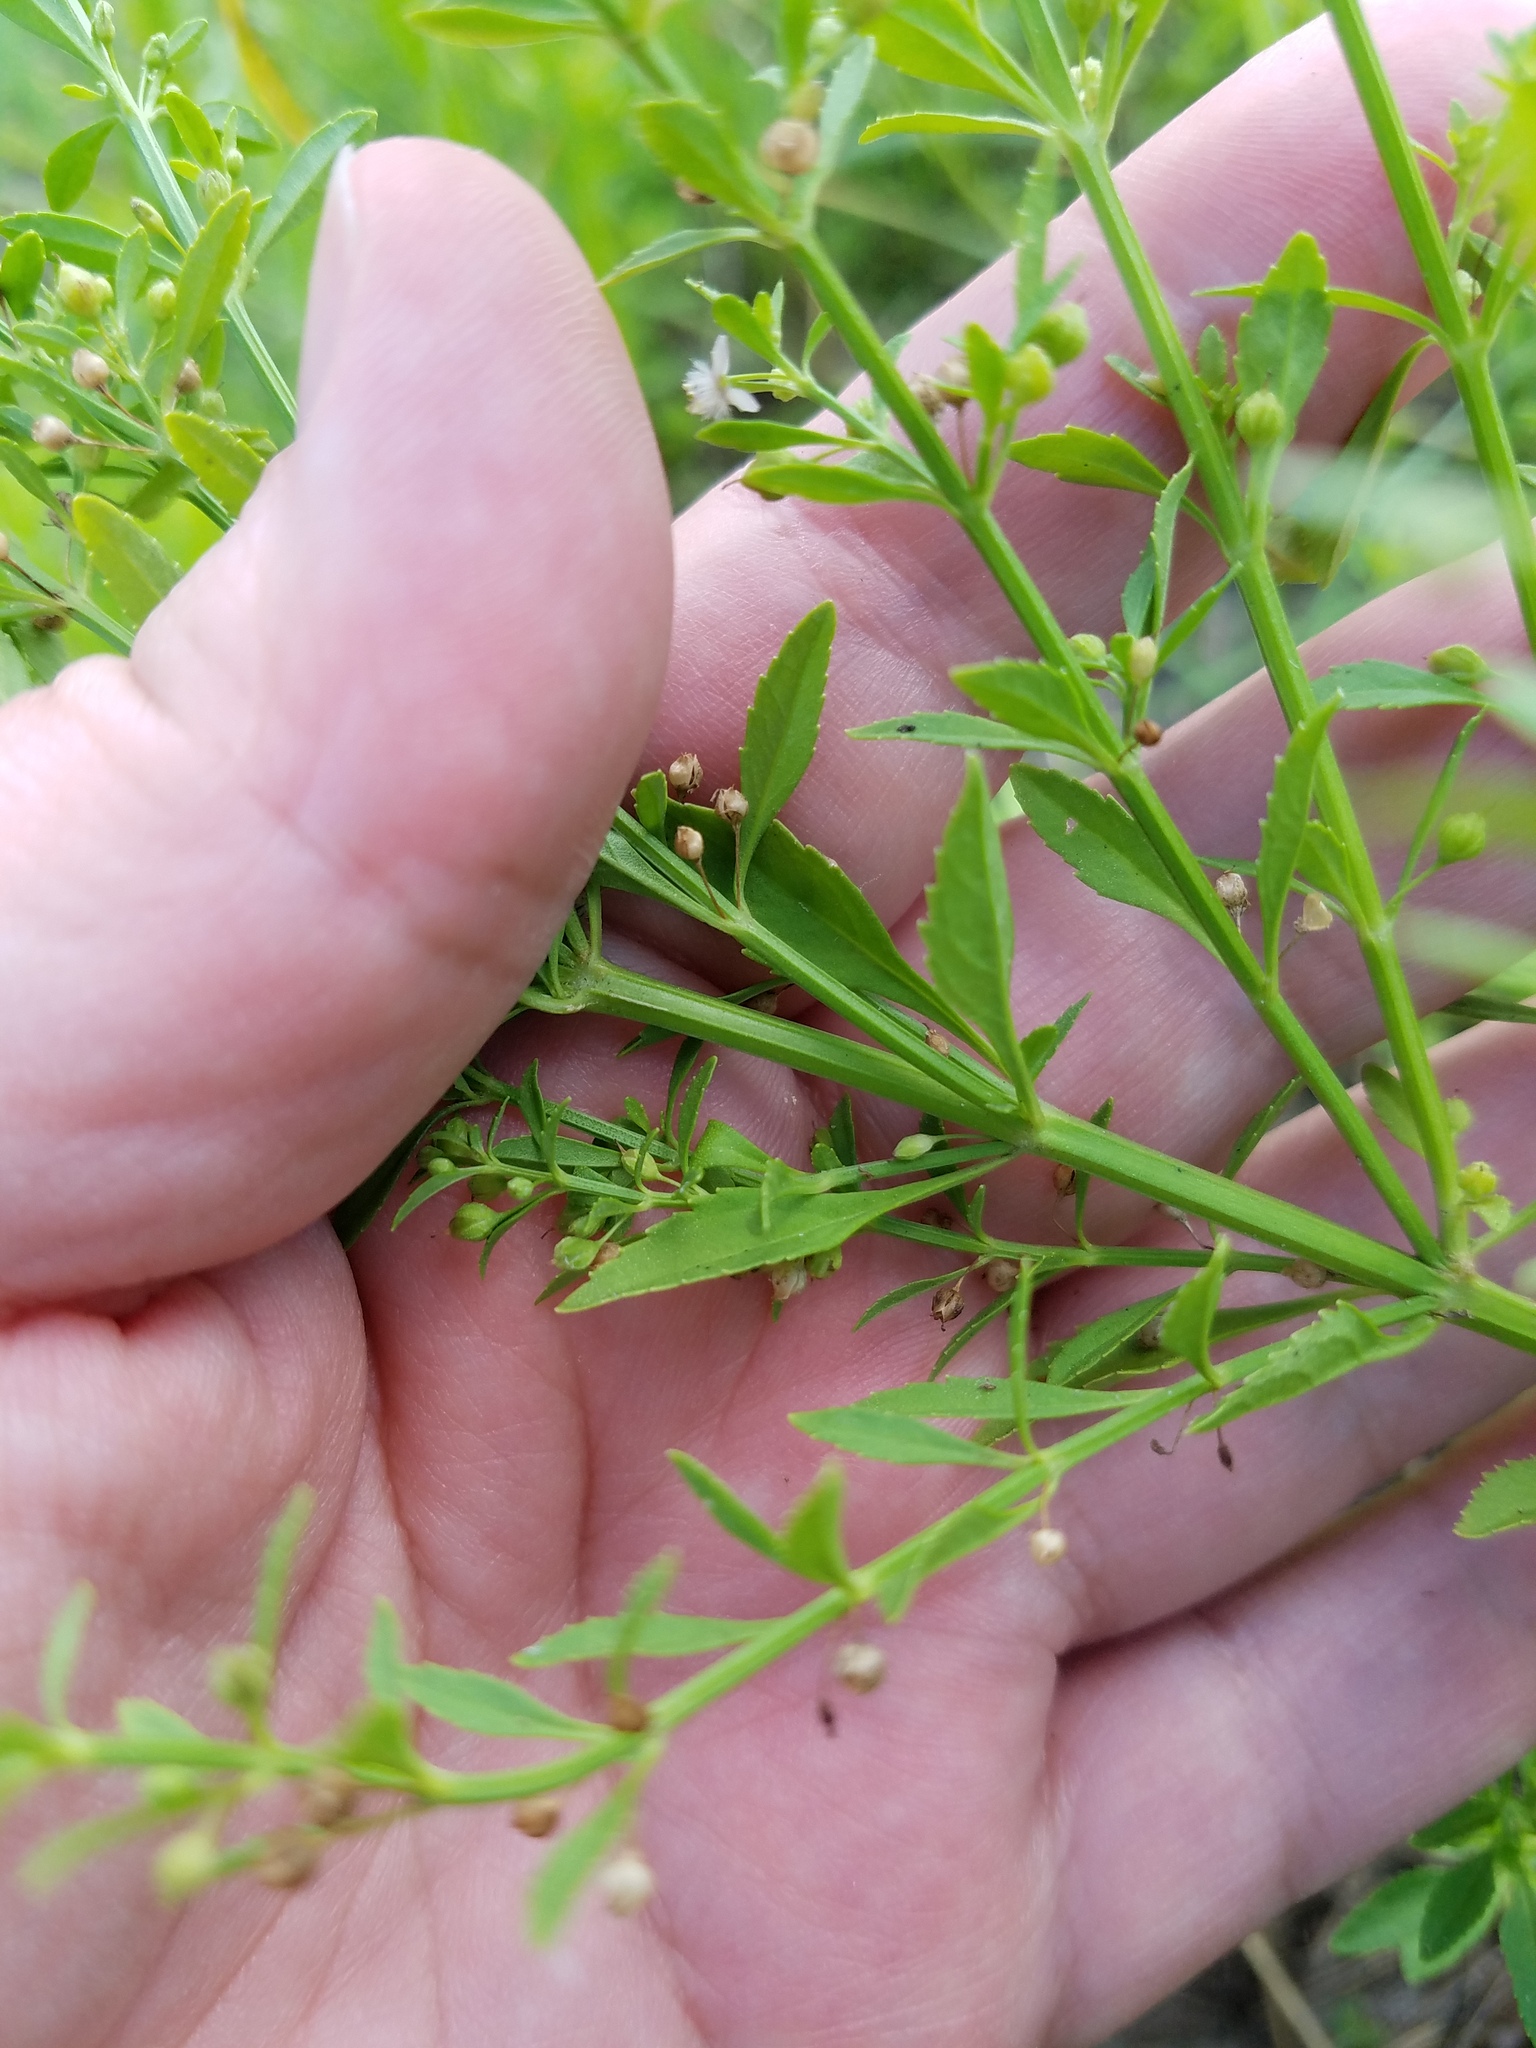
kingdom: Plantae
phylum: Tracheophyta
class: Magnoliopsida
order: Lamiales
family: Plantaginaceae
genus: Scoparia
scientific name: Scoparia dulcis
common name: Scoparia-weed
